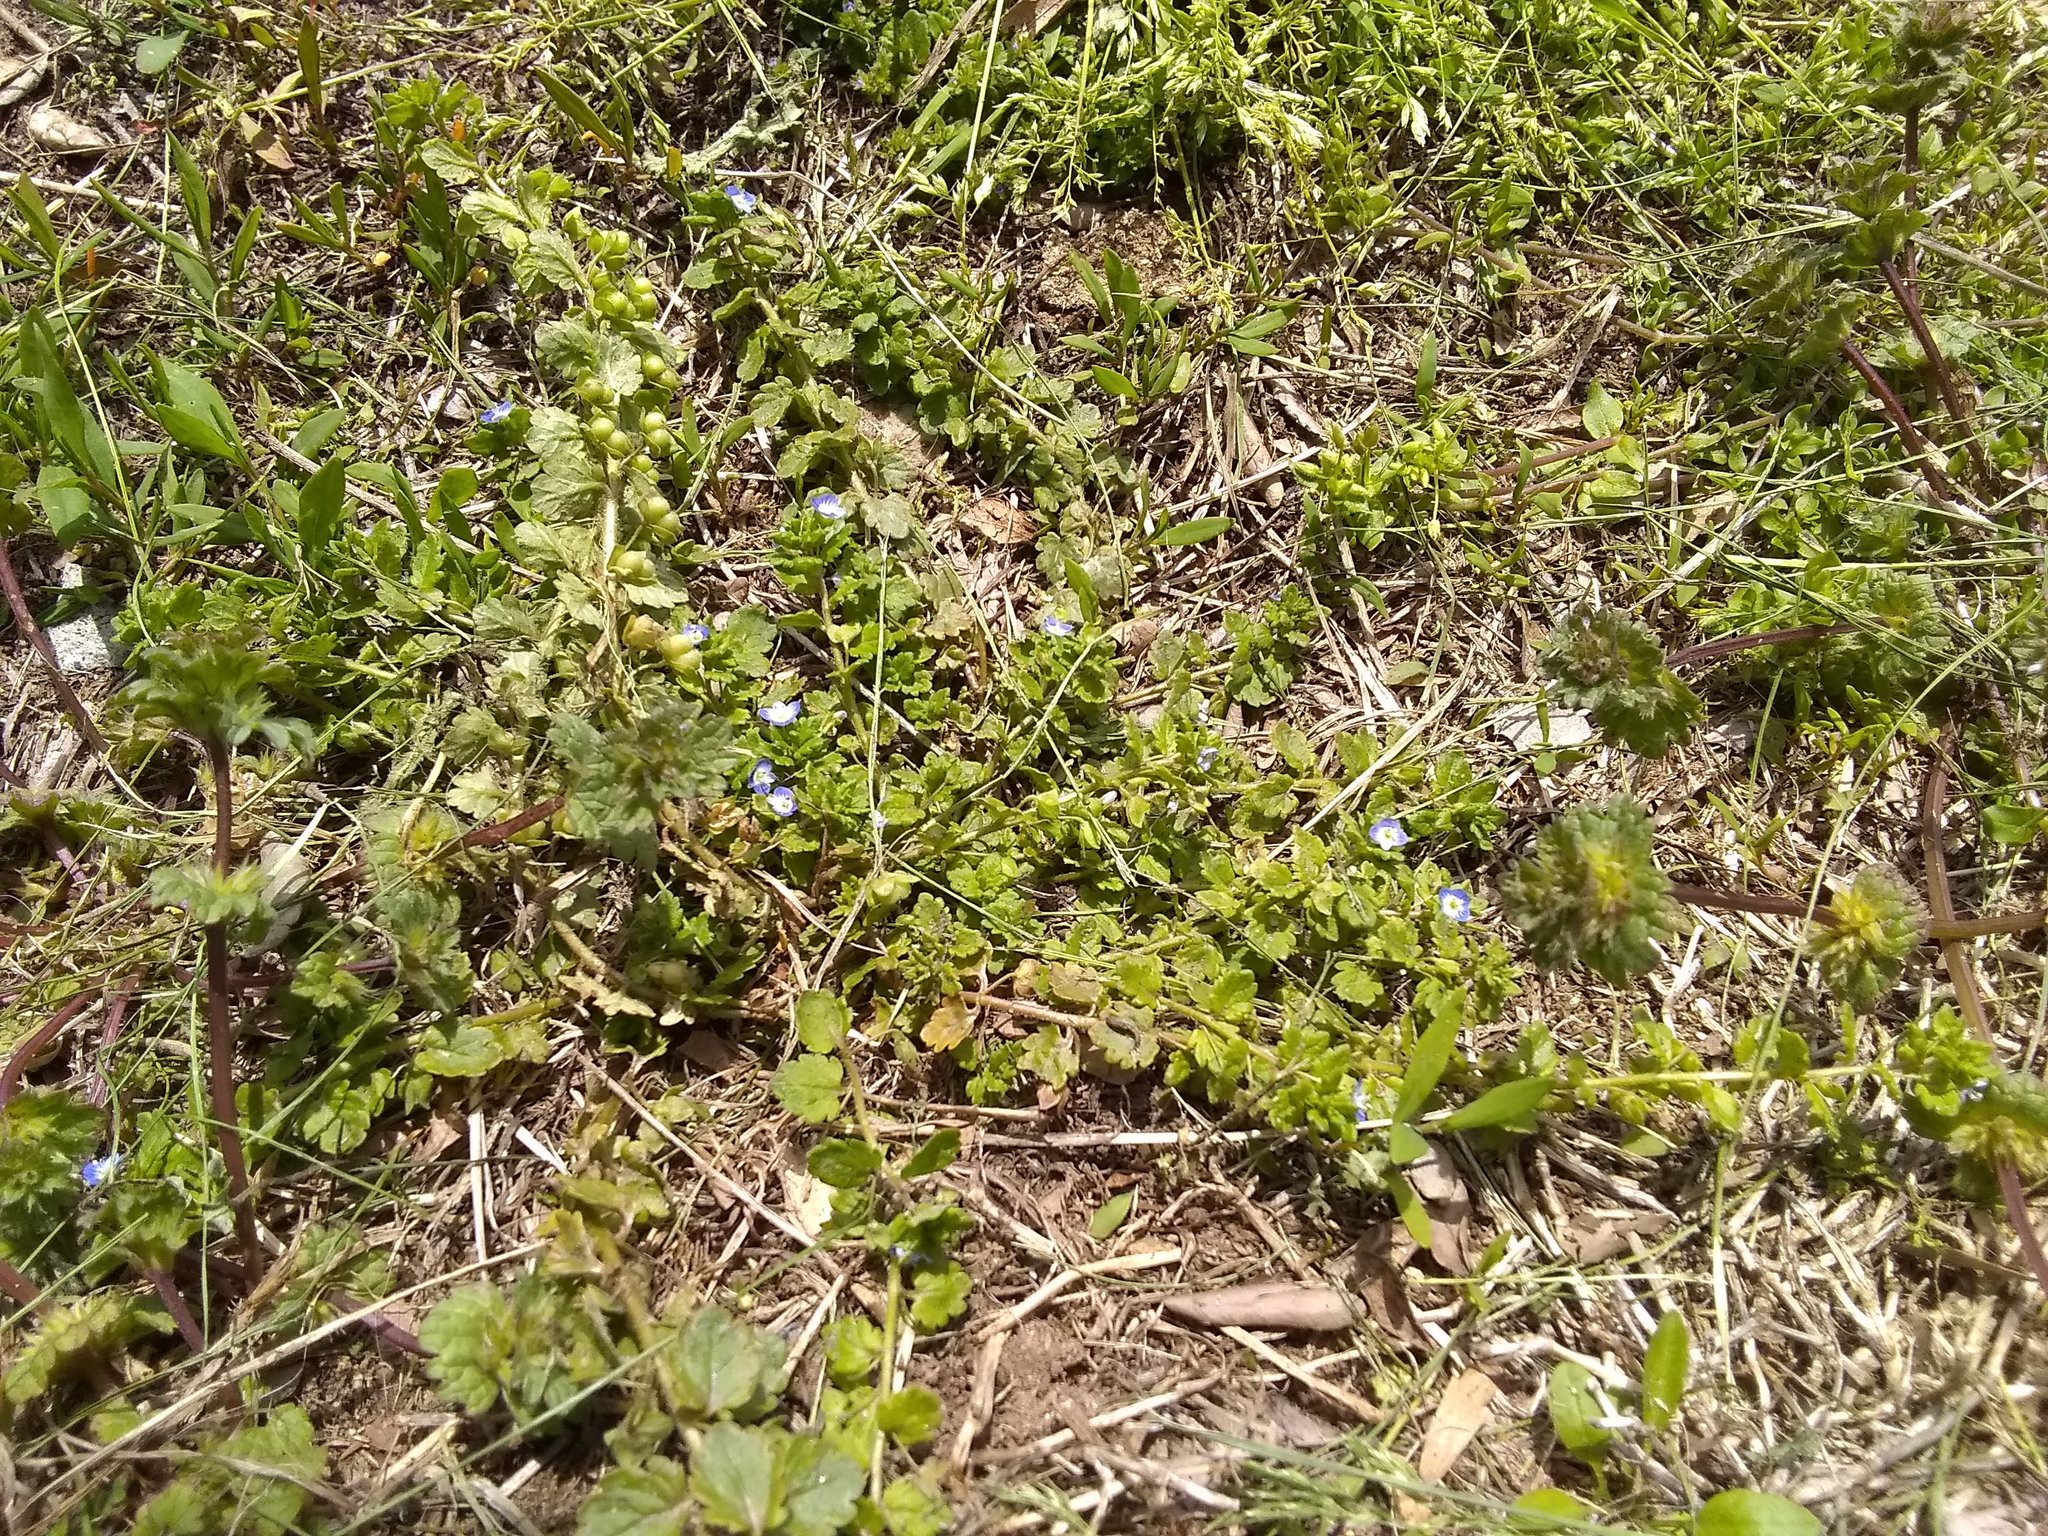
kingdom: Plantae
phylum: Tracheophyta
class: Magnoliopsida
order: Lamiales
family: Plantaginaceae
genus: Veronica
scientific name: Veronica polita
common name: Grey field-speedwell
